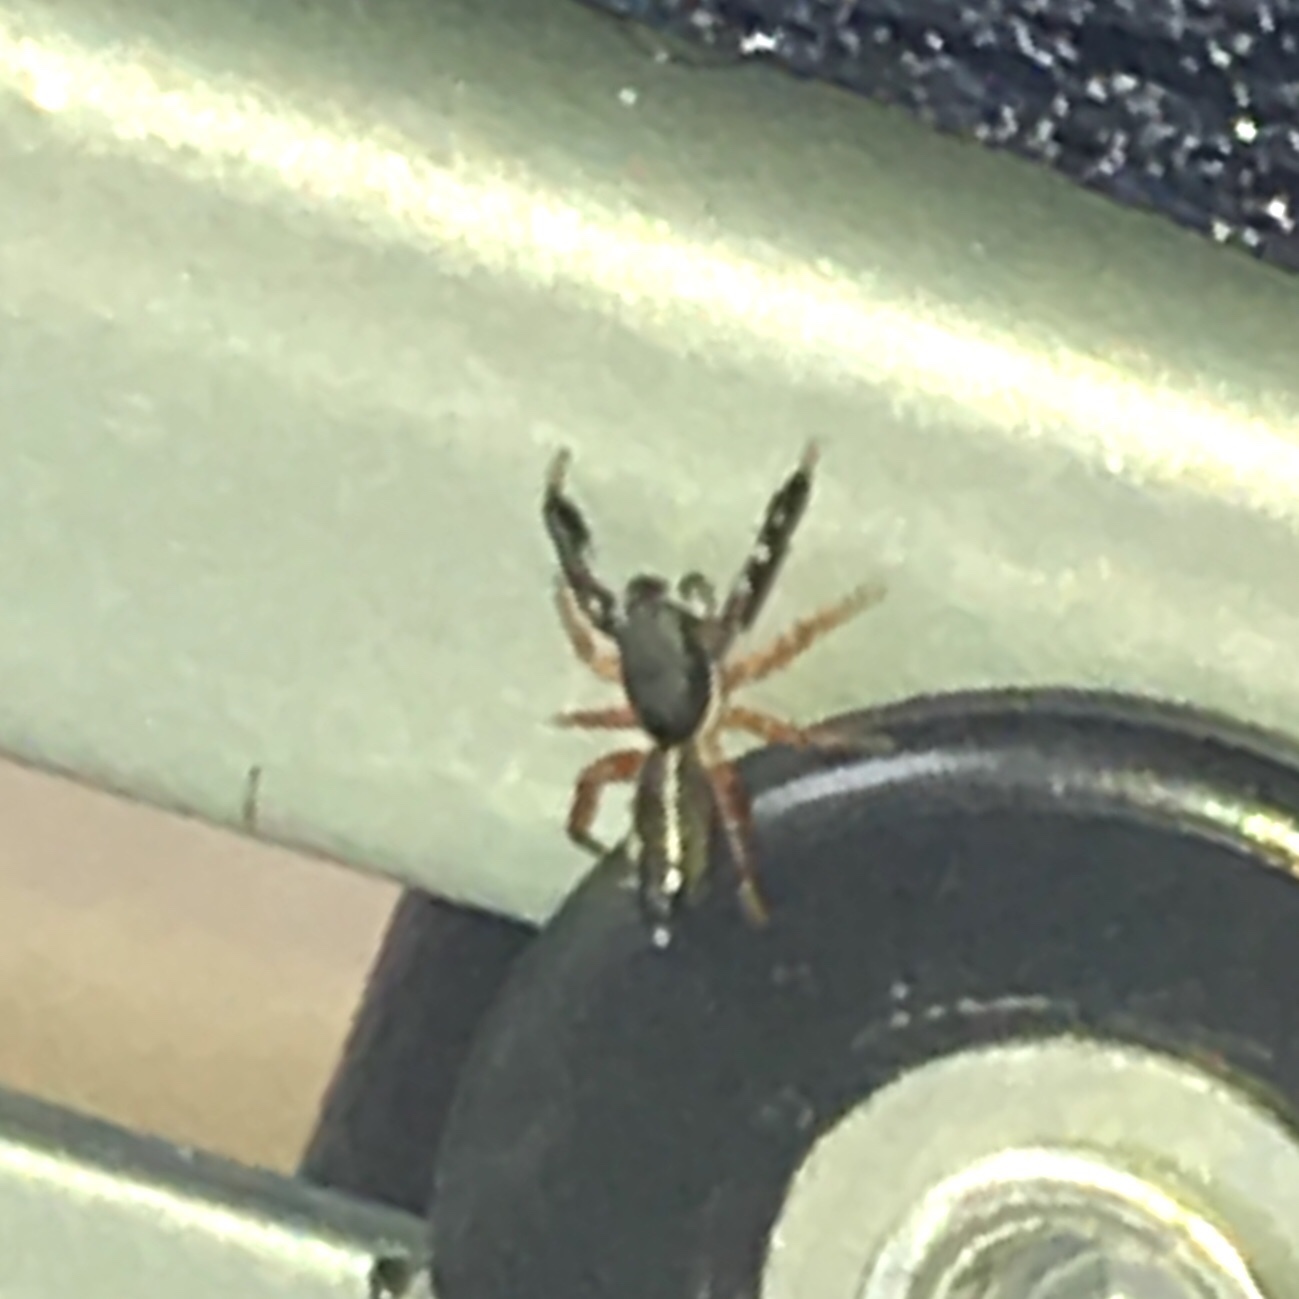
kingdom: Animalia
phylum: Arthropoda
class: Arachnida
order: Araneae
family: Salticidae
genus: Metacyrba
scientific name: Metacyrba floridana
